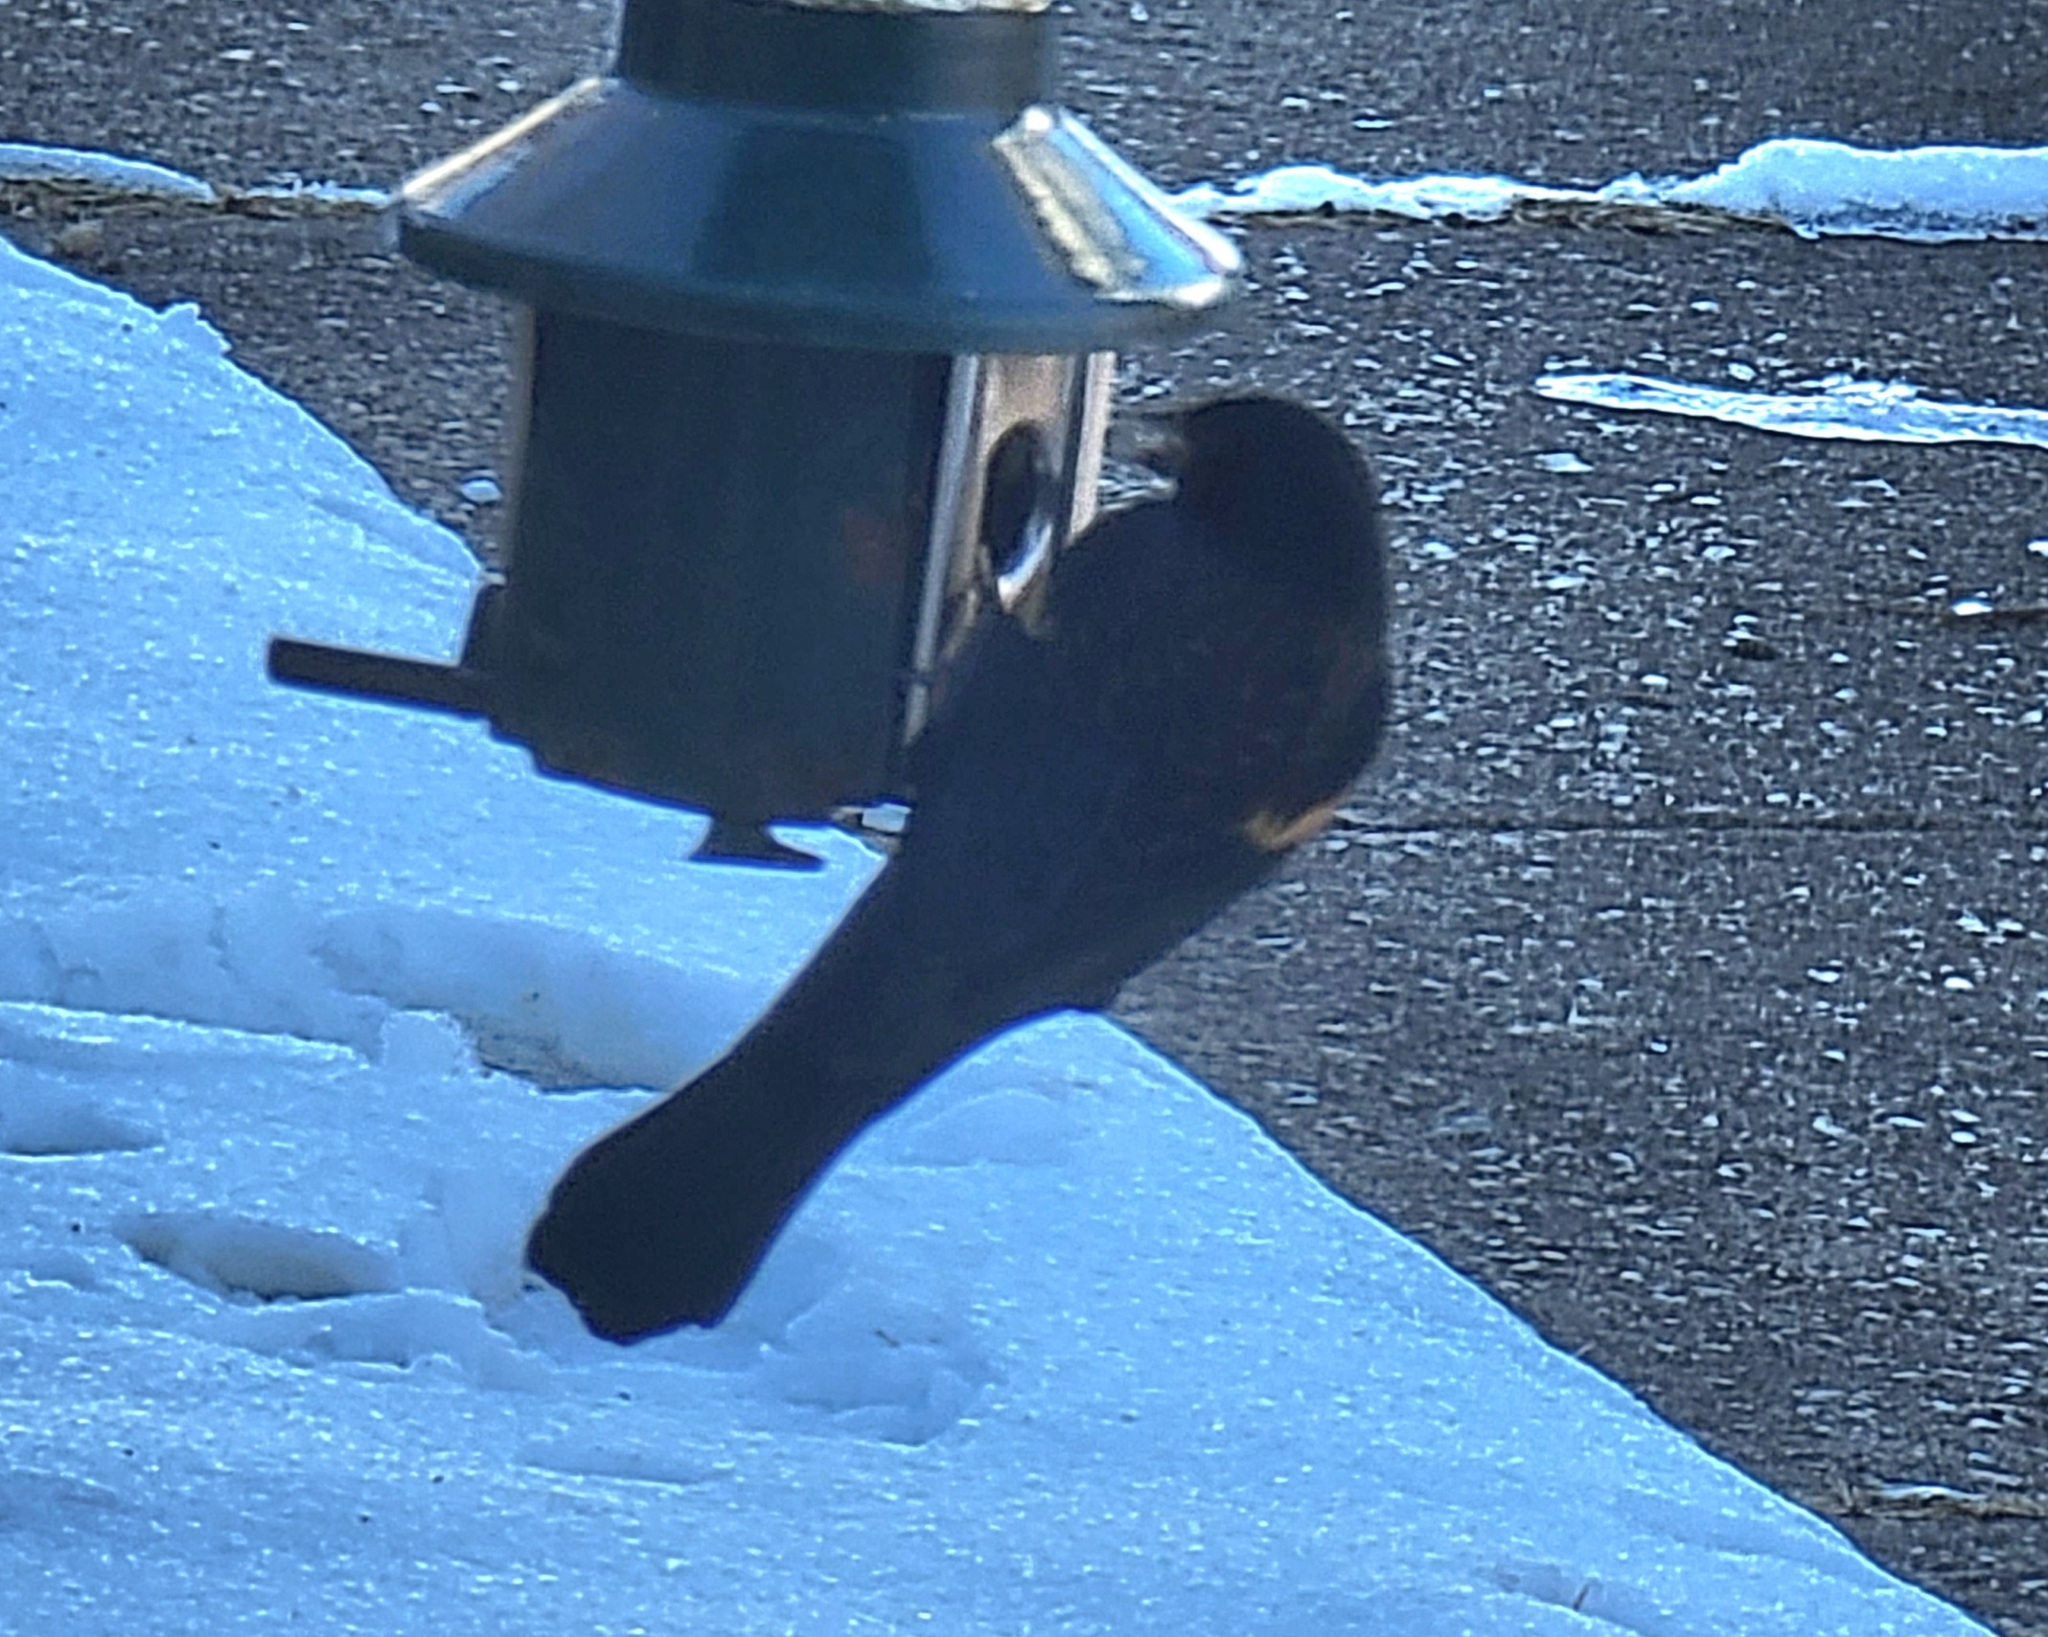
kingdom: Animalia
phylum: Chordata
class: Aves
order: Passeriformes
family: Icteridae
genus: Agelaius
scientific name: Agelaius phoeniceus
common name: Red-winged blackbird
